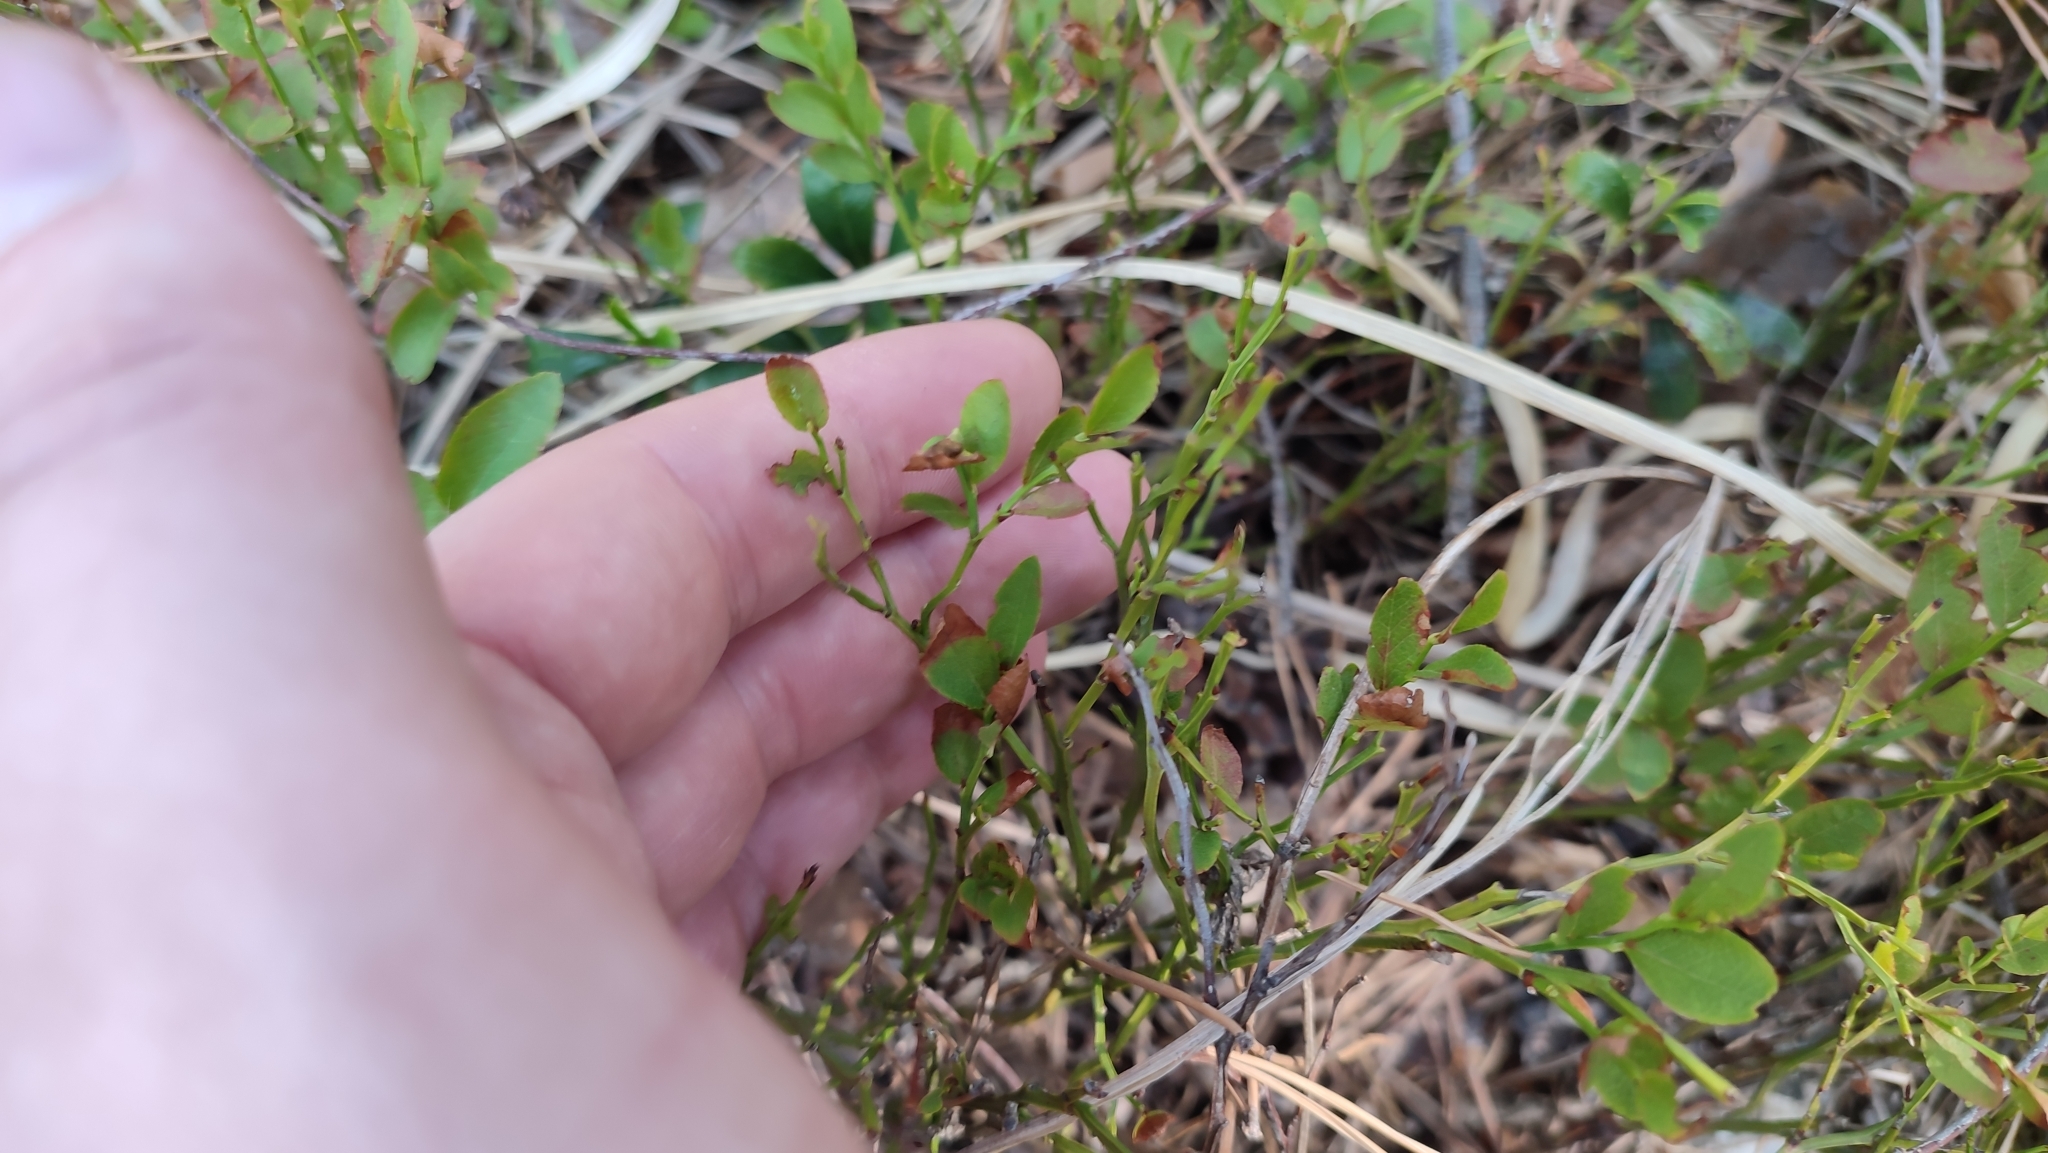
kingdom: Plantae
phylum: Tracheophyta
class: Magnoliopsida
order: Ericales
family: Ericaceae
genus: Vaccinium
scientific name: Vaccinium myrtillus
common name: Bilberry
